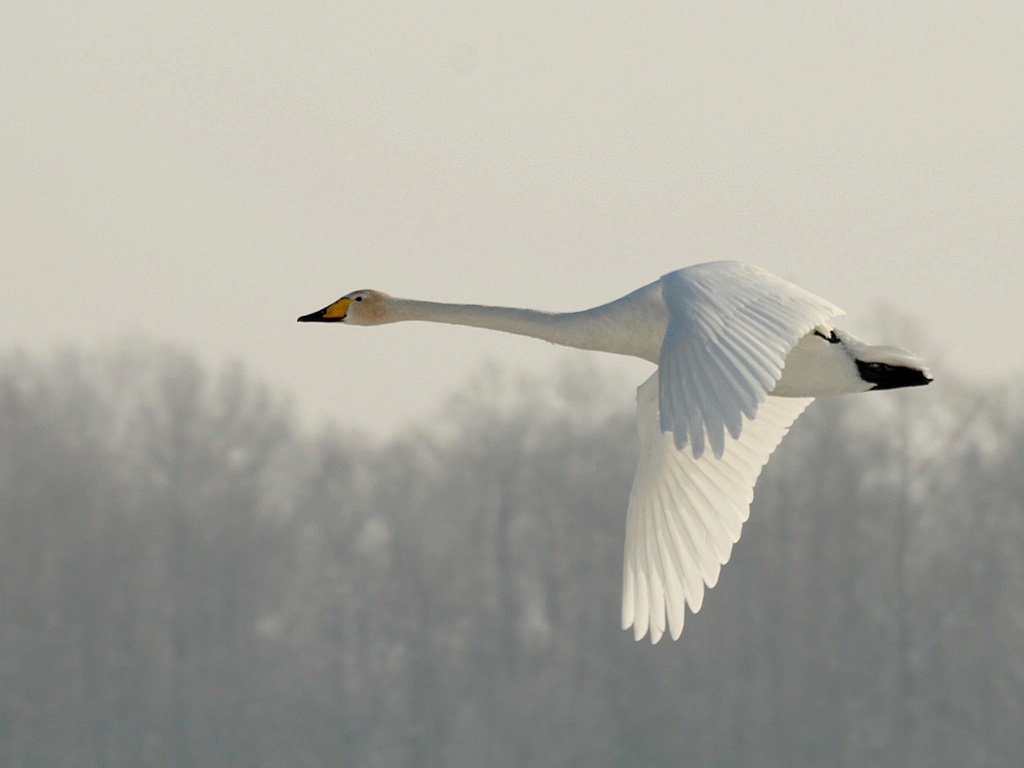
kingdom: Animalia
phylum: Chordata
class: Aves
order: Anseriformes
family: Anatidae
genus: Cygnus
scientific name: Cygnus cygnus
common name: Whooper swan
